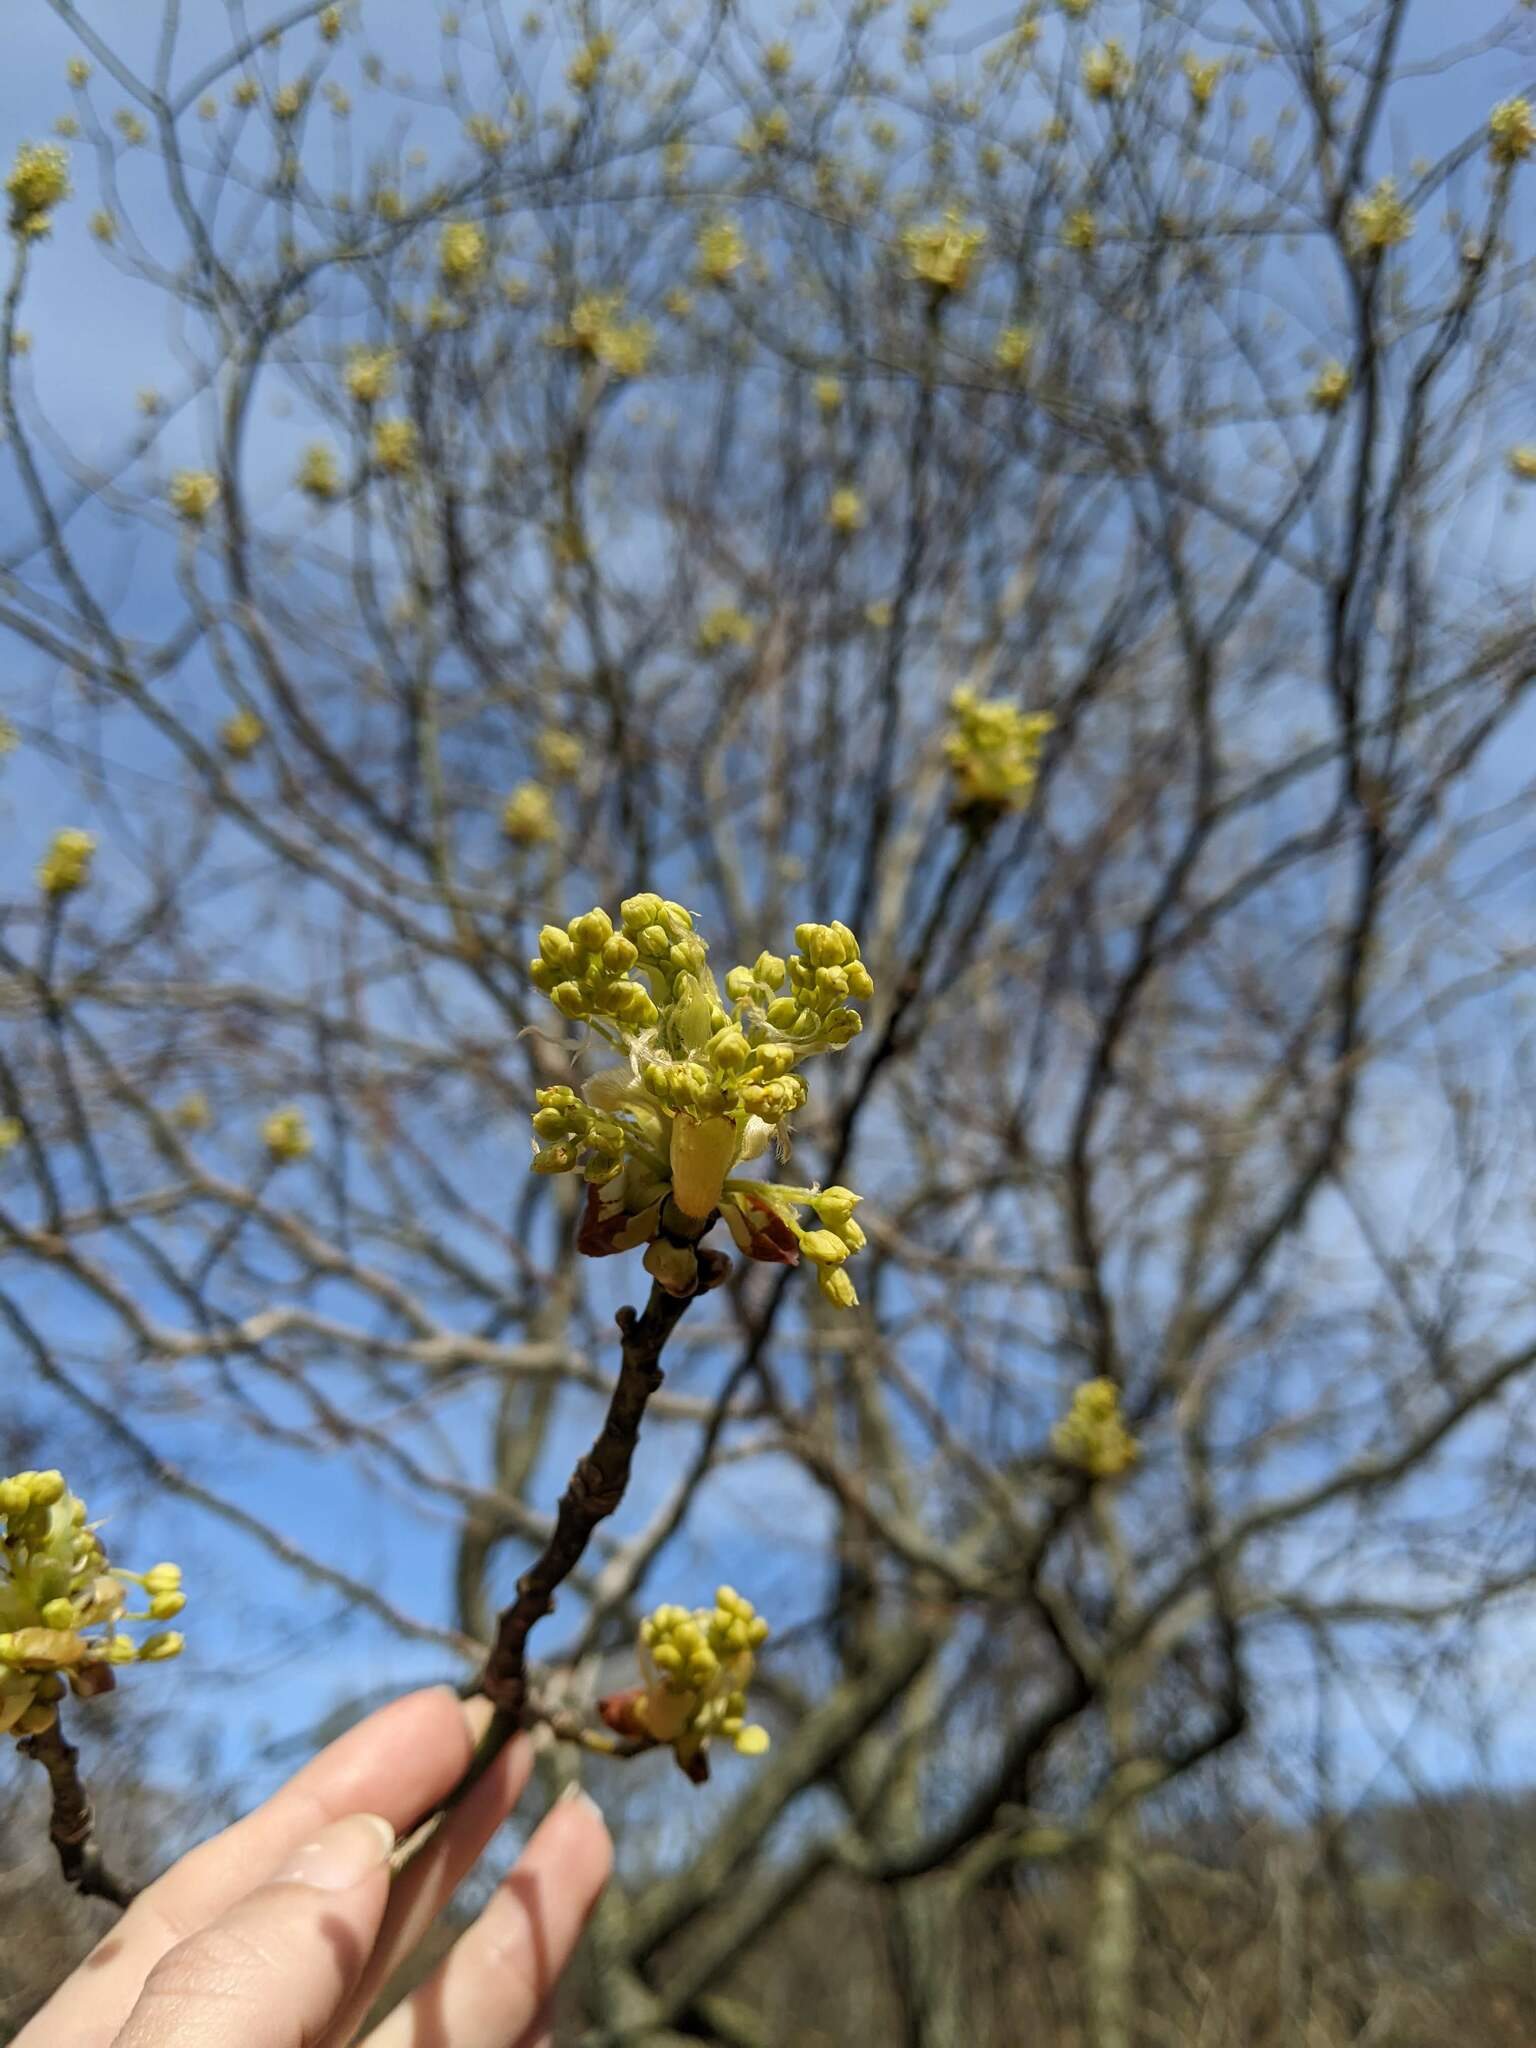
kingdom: Plantae
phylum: Tracheophyta
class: Magnoliopsida
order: Laurales
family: Lauraceae
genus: Sassafras
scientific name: Sassafras albidum
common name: Sassafras
